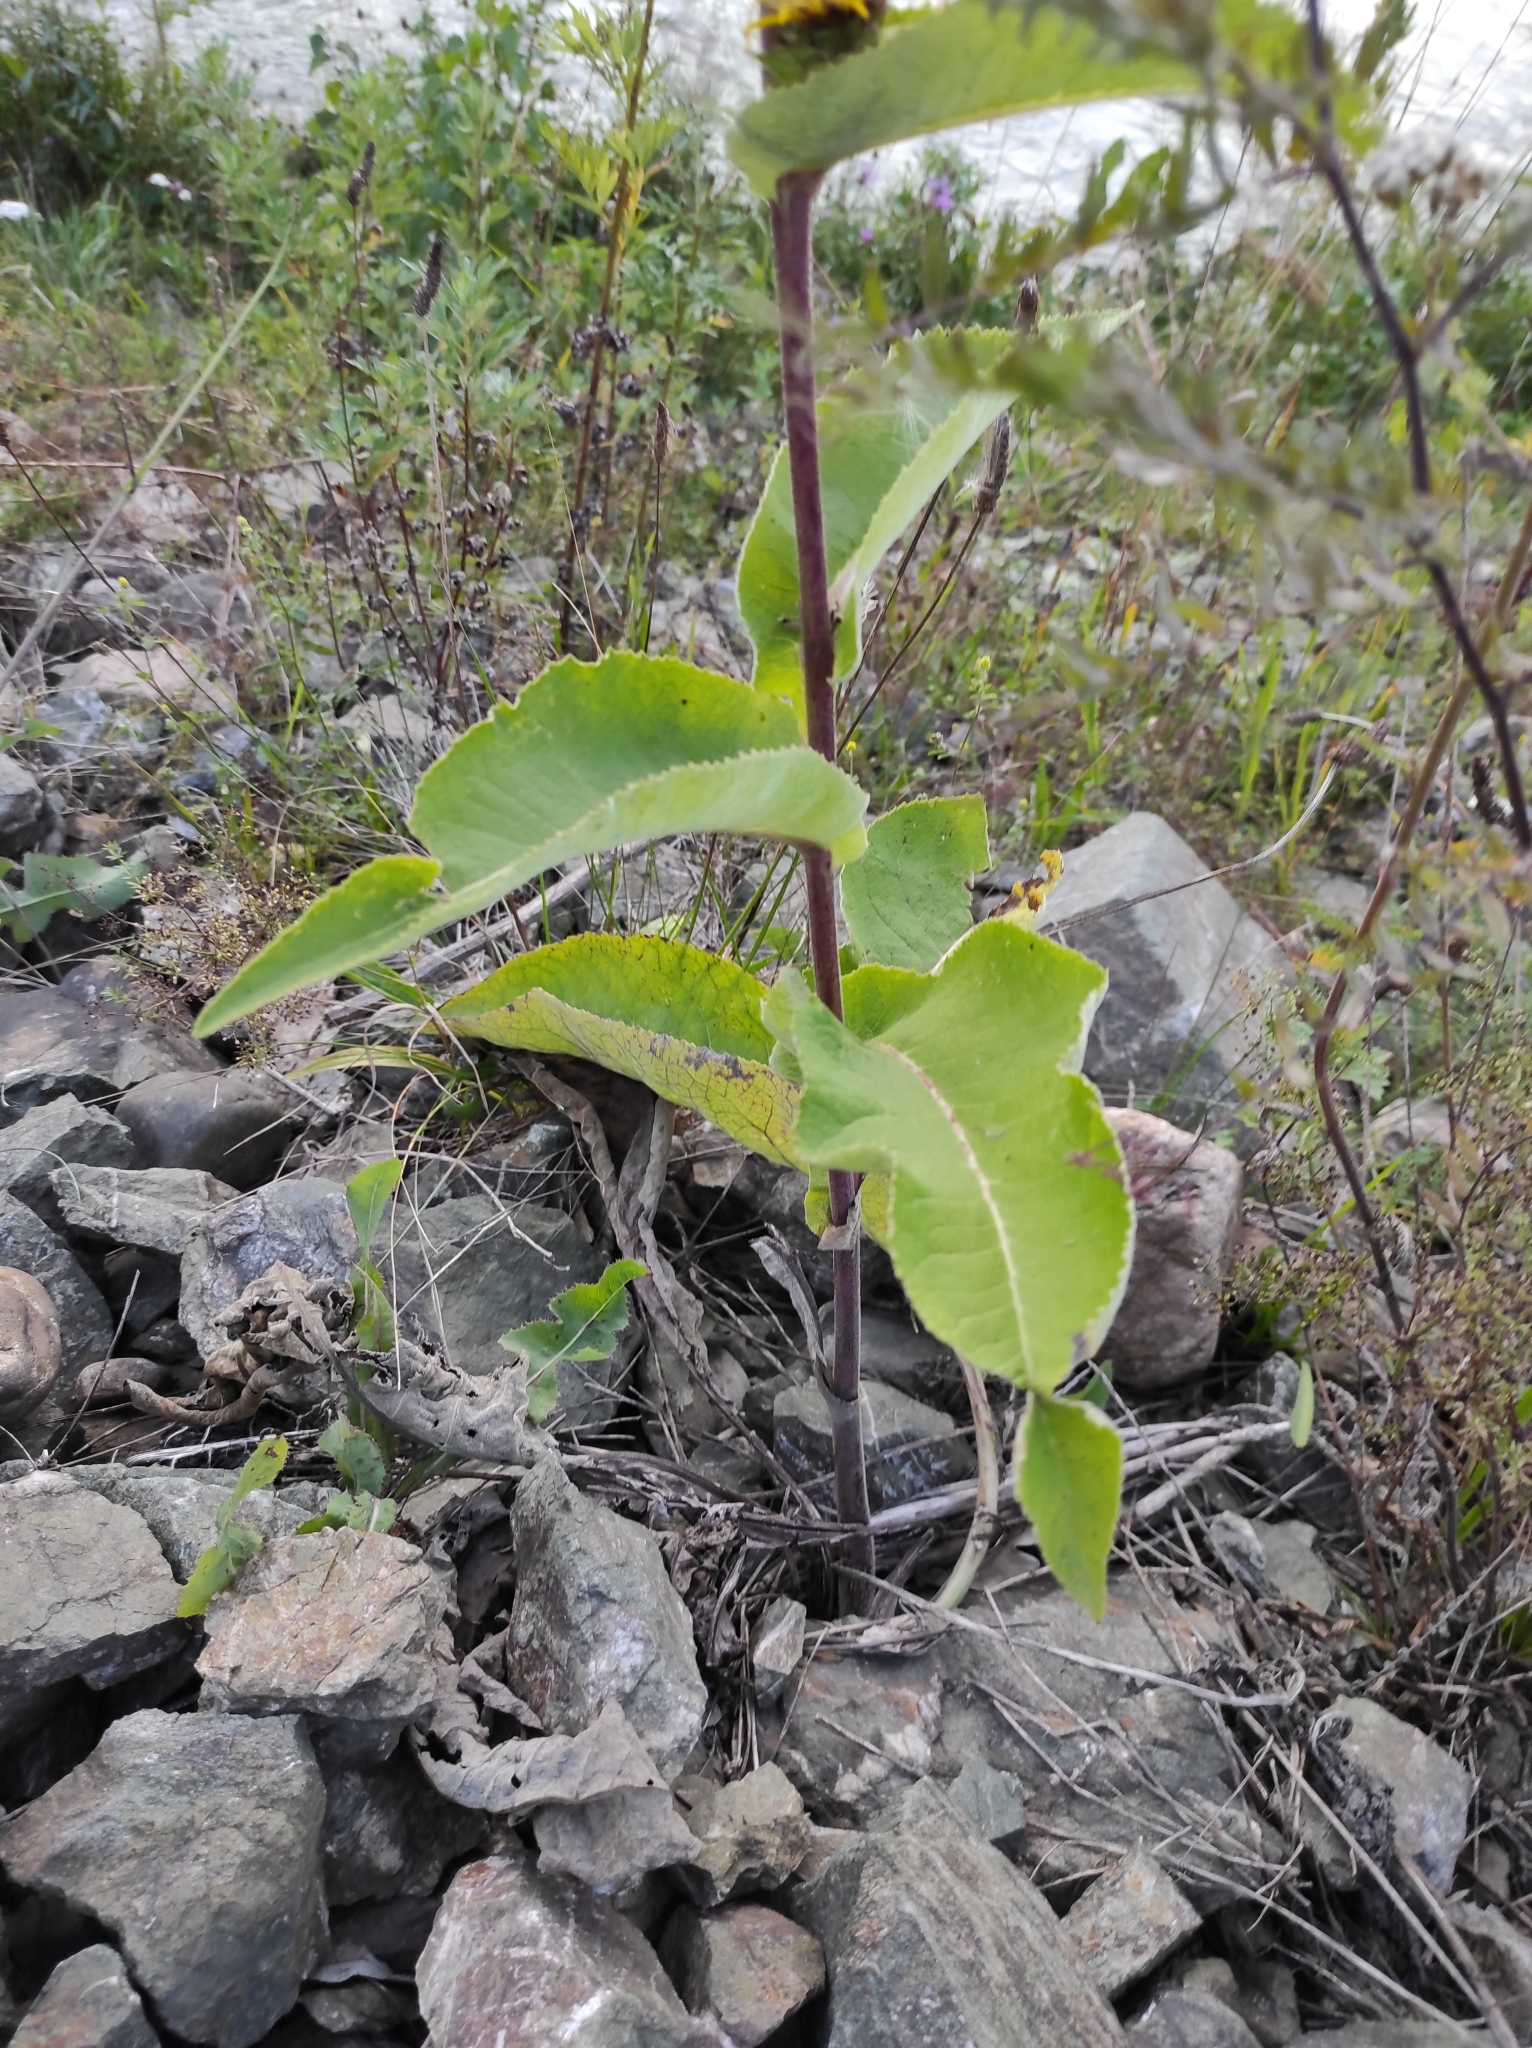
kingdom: Plantae
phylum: Tracheophyta
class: Magnoliopsida
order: Asterales
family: Asteraceae
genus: Inula
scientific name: Inula helenium
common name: Elecampane
